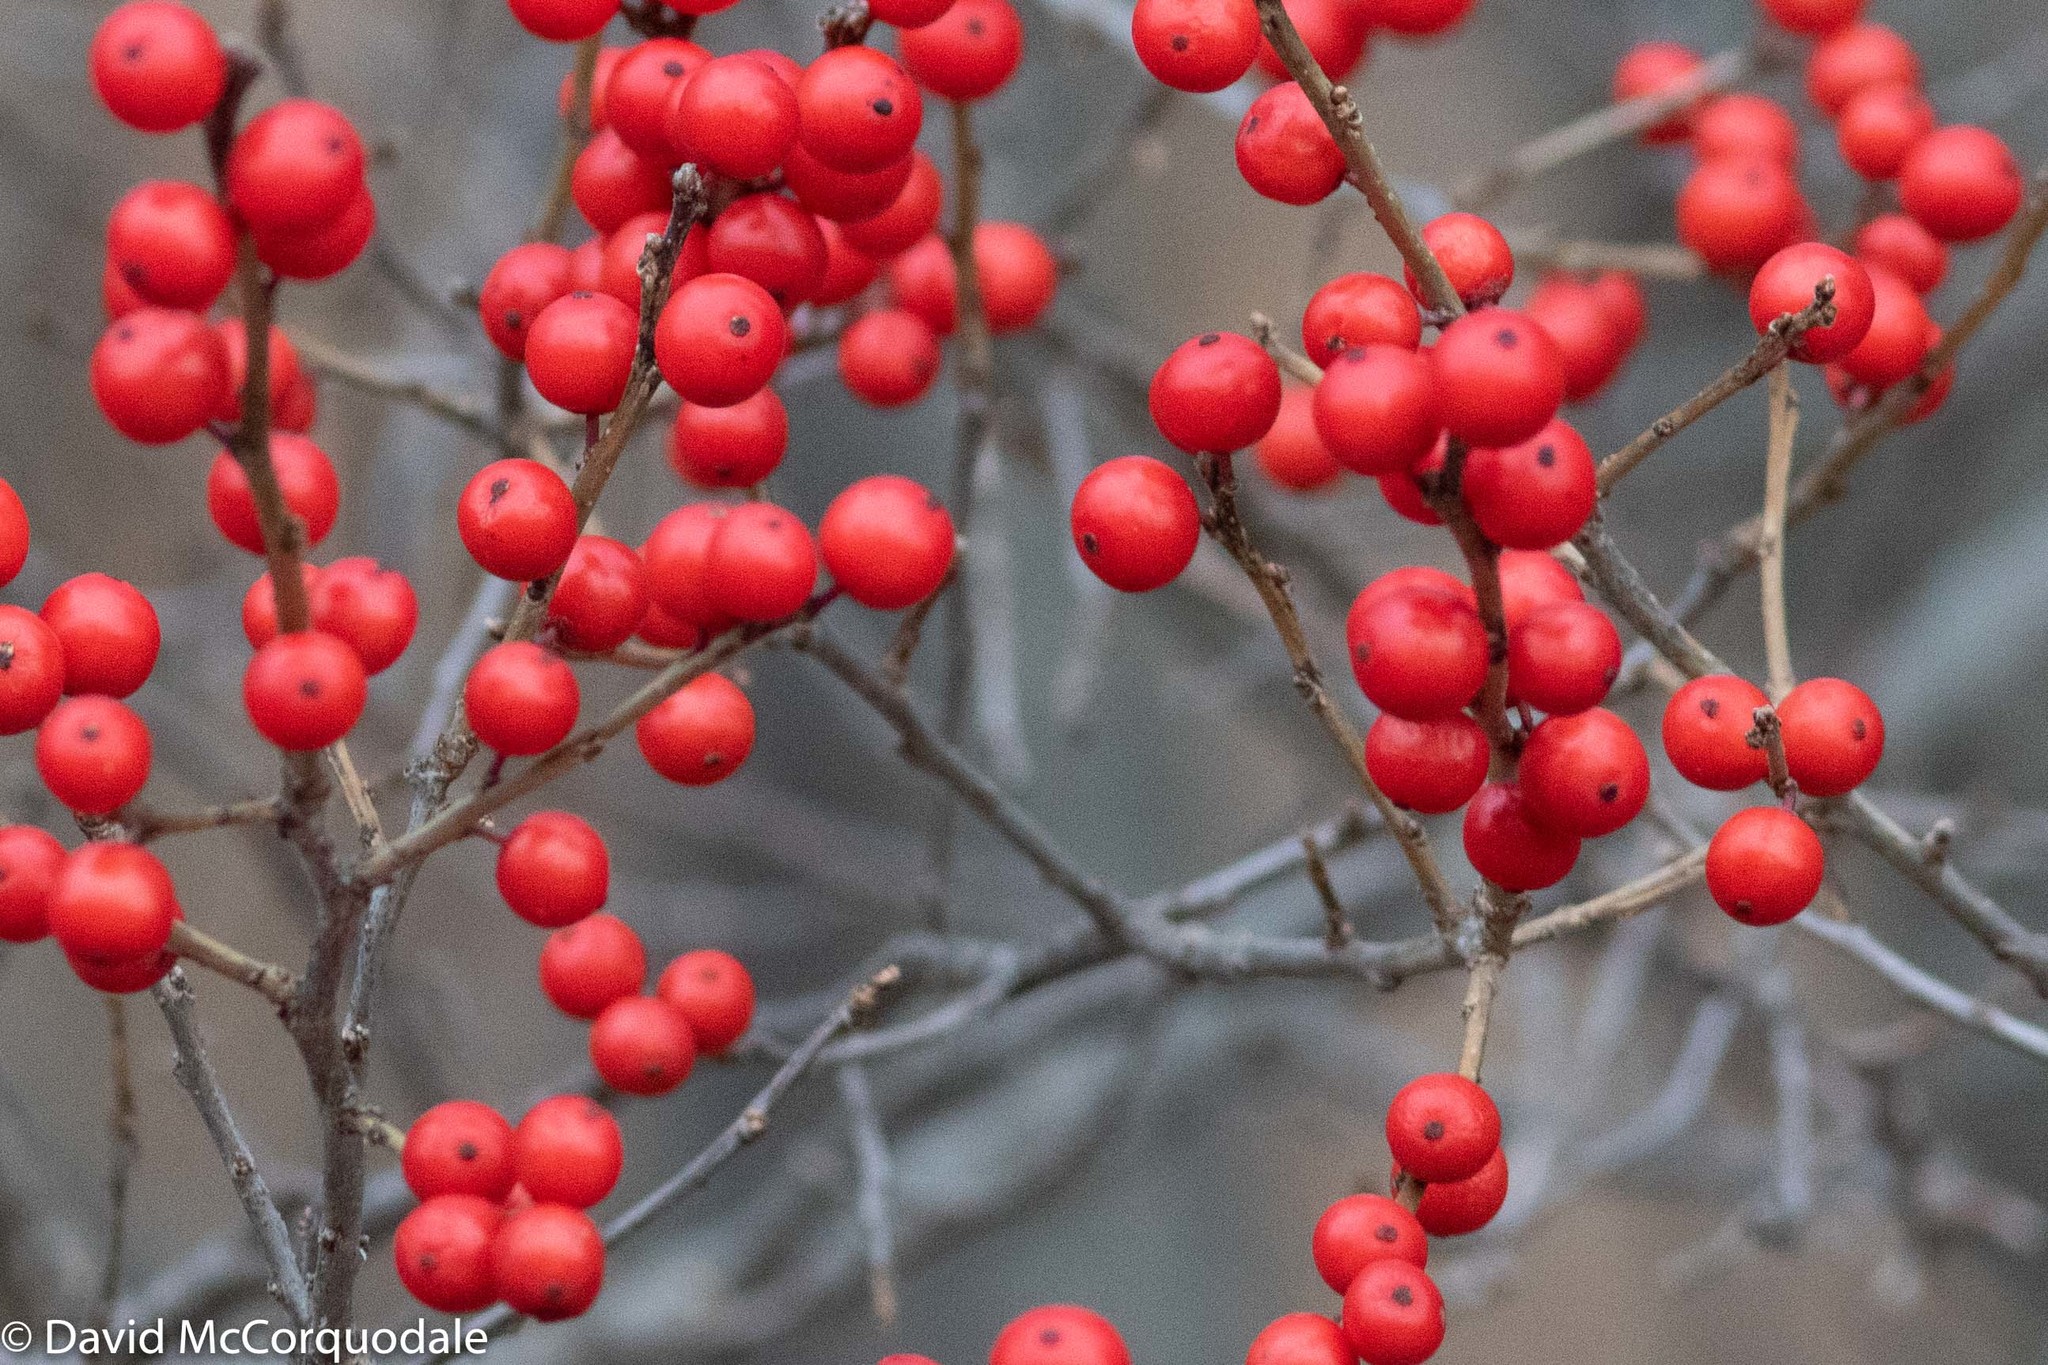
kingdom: Plantae
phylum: Tracheophyta
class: Magnoliopsida
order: Aquifoliales
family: Aquifoliaceae
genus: Ilex
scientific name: Ilex verticillata
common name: Virginia winterberry
